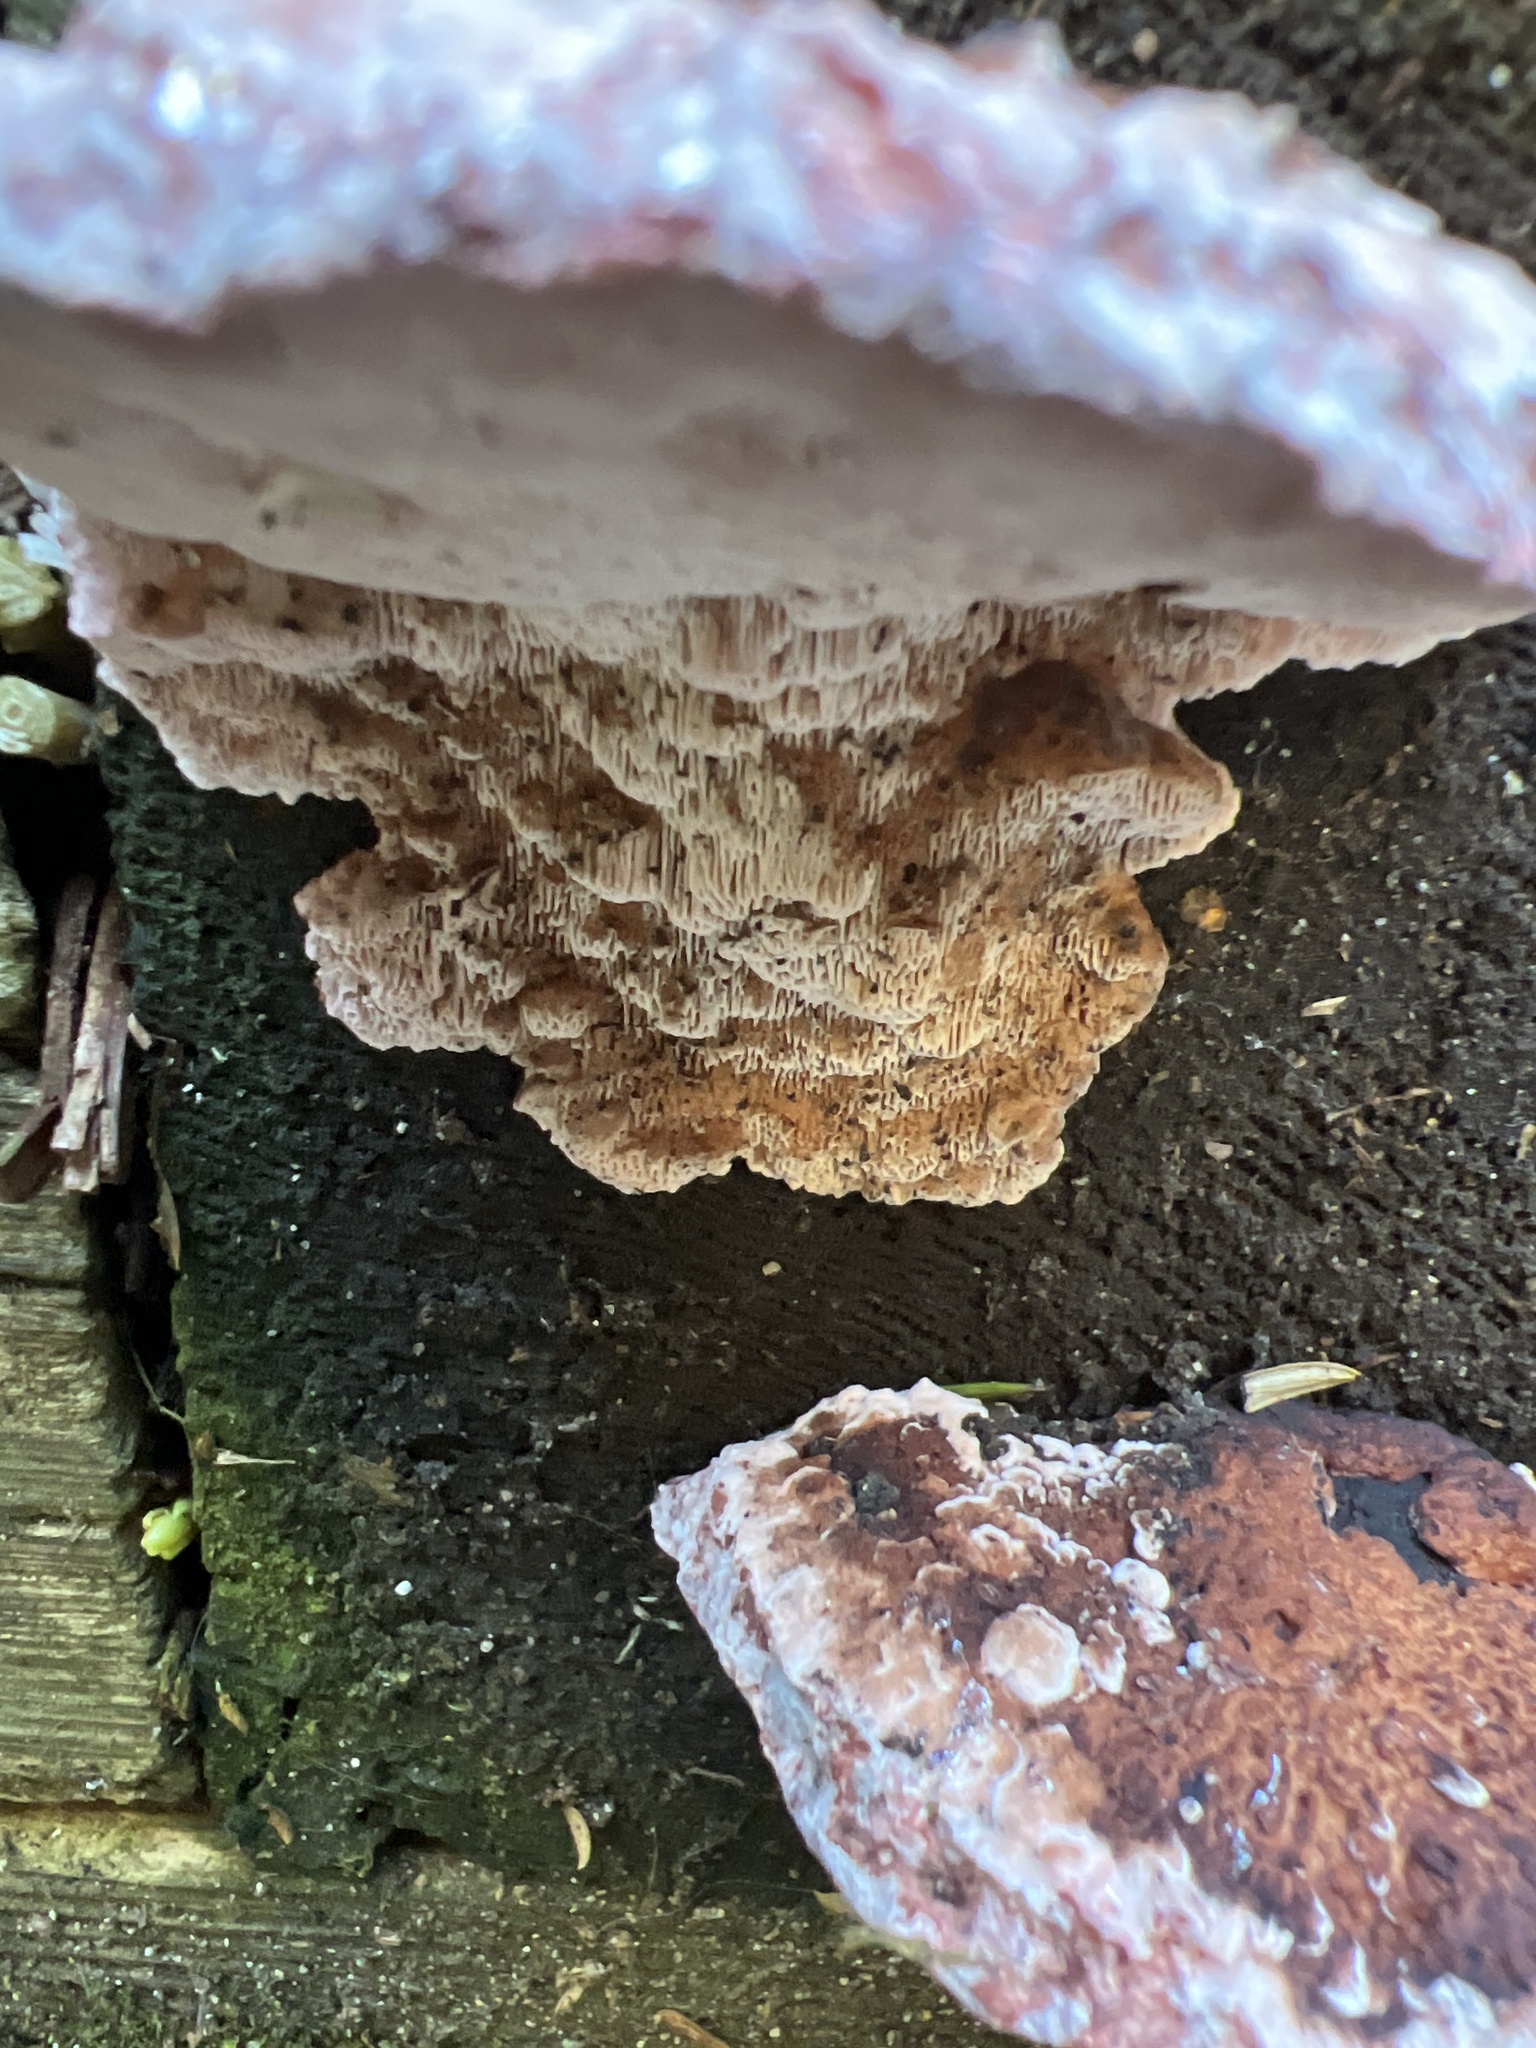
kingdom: Fungi
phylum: Basidiomycota
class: Agaricomycetes
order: Polyporales
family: Fomitopsidaceae
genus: Rhodofomes
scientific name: Rhodofomes cajanderi
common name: Rosy conk
